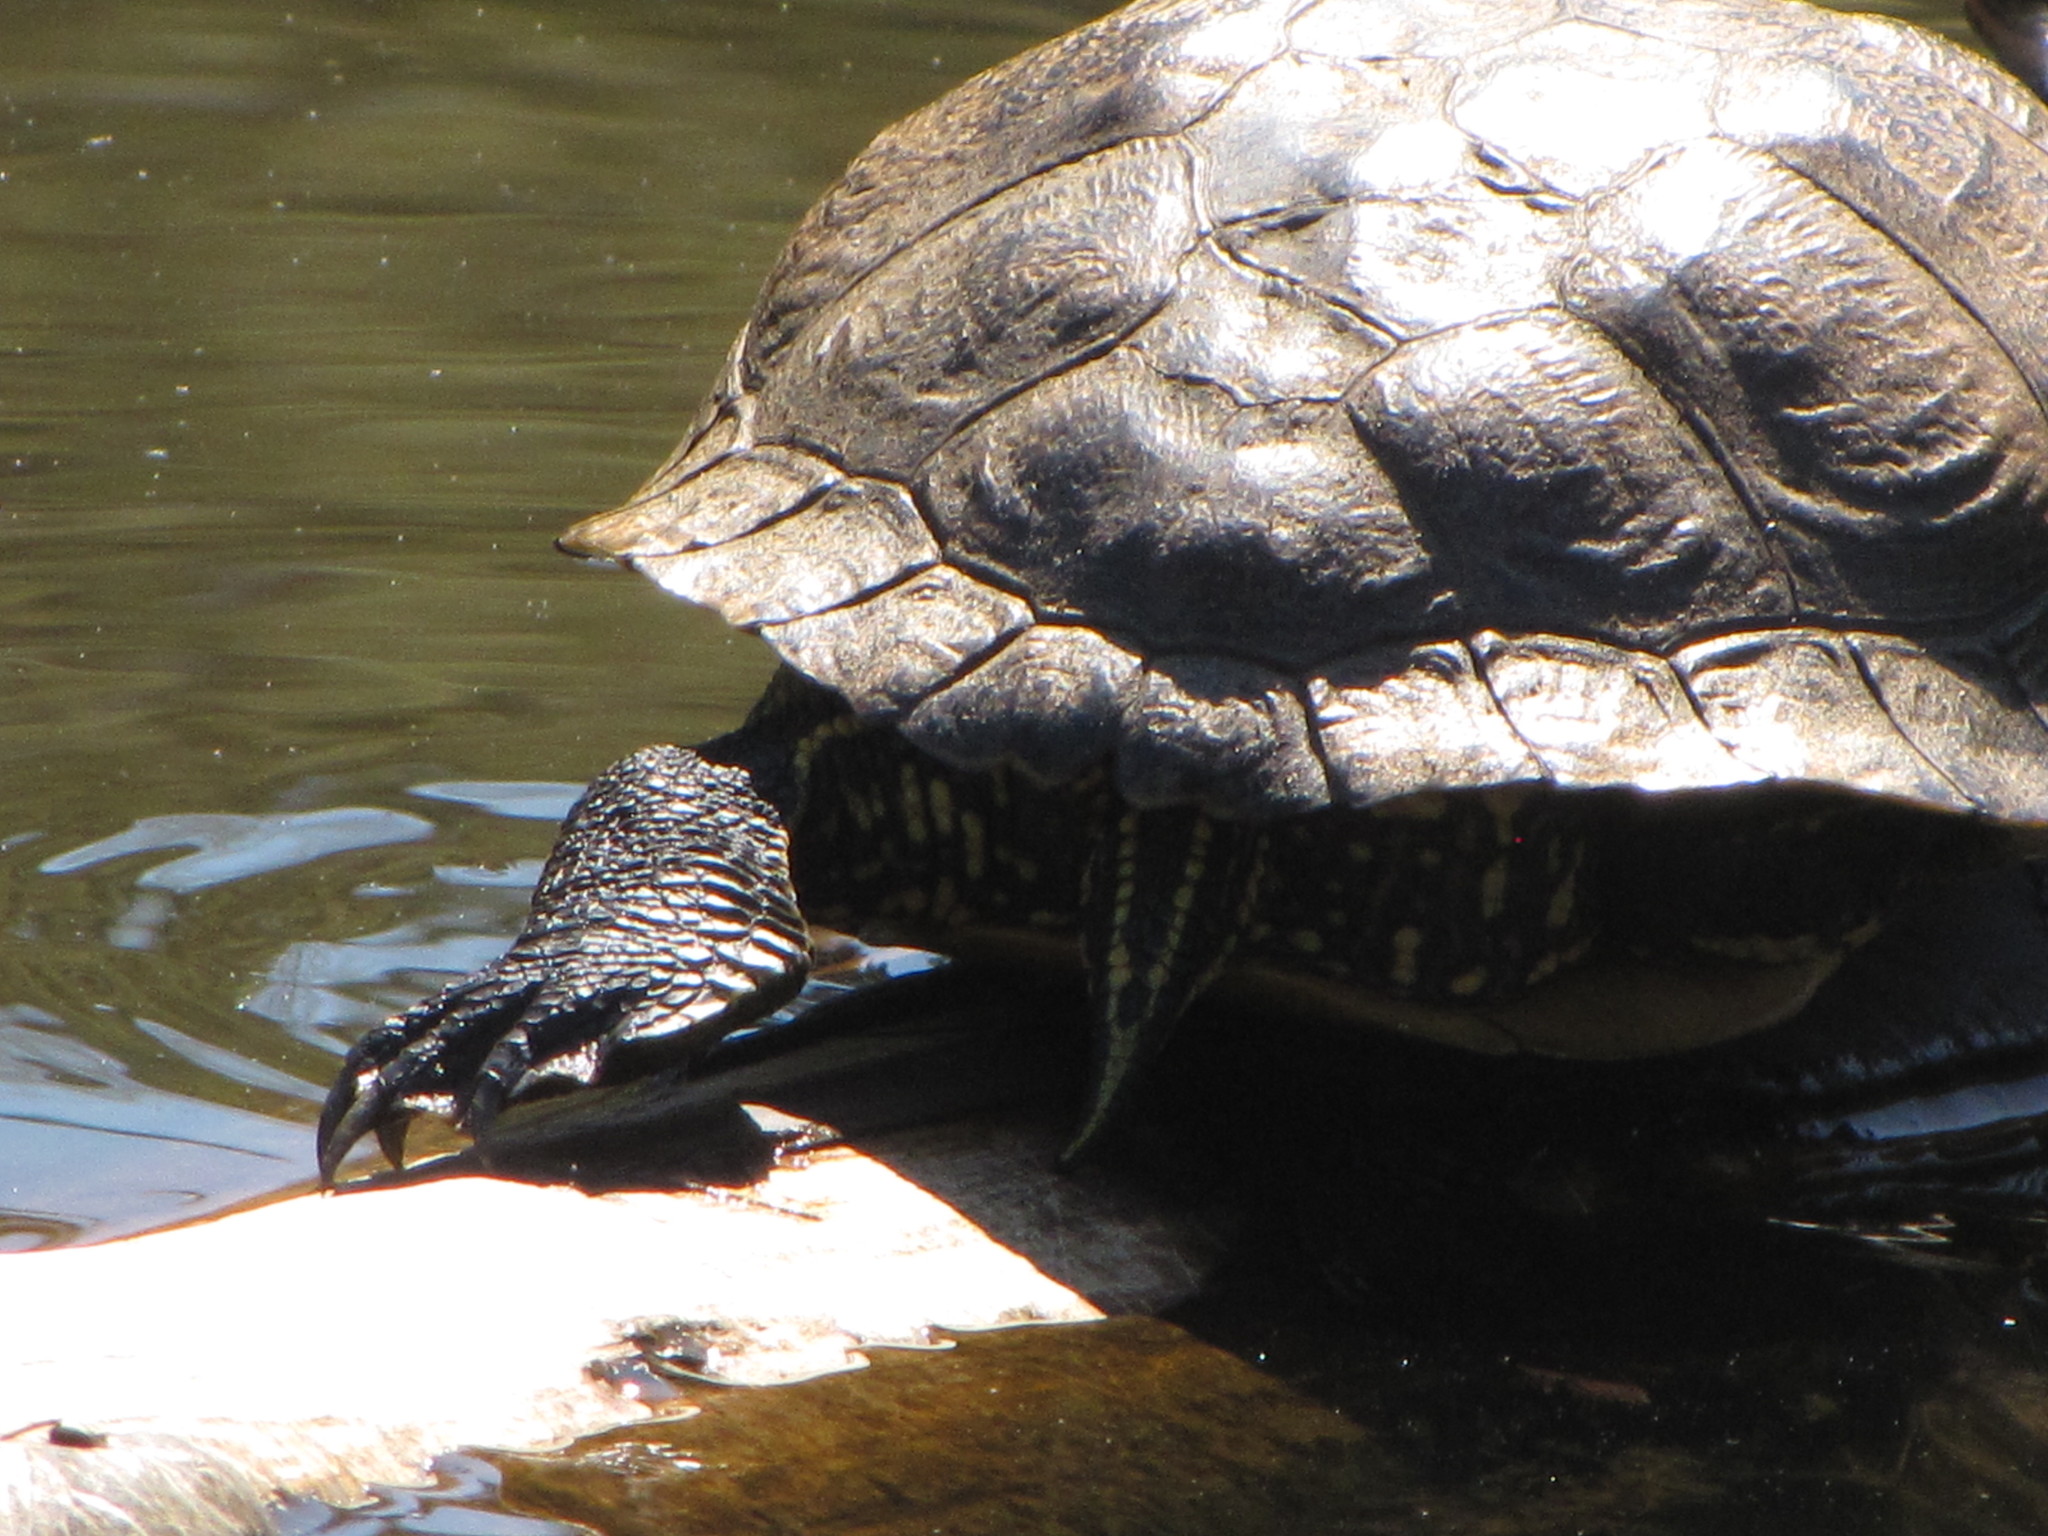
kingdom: Animalia
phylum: Chordata
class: Testudines
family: Emydidae
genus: Trachemys
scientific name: Trachemys scripta
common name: Slider
